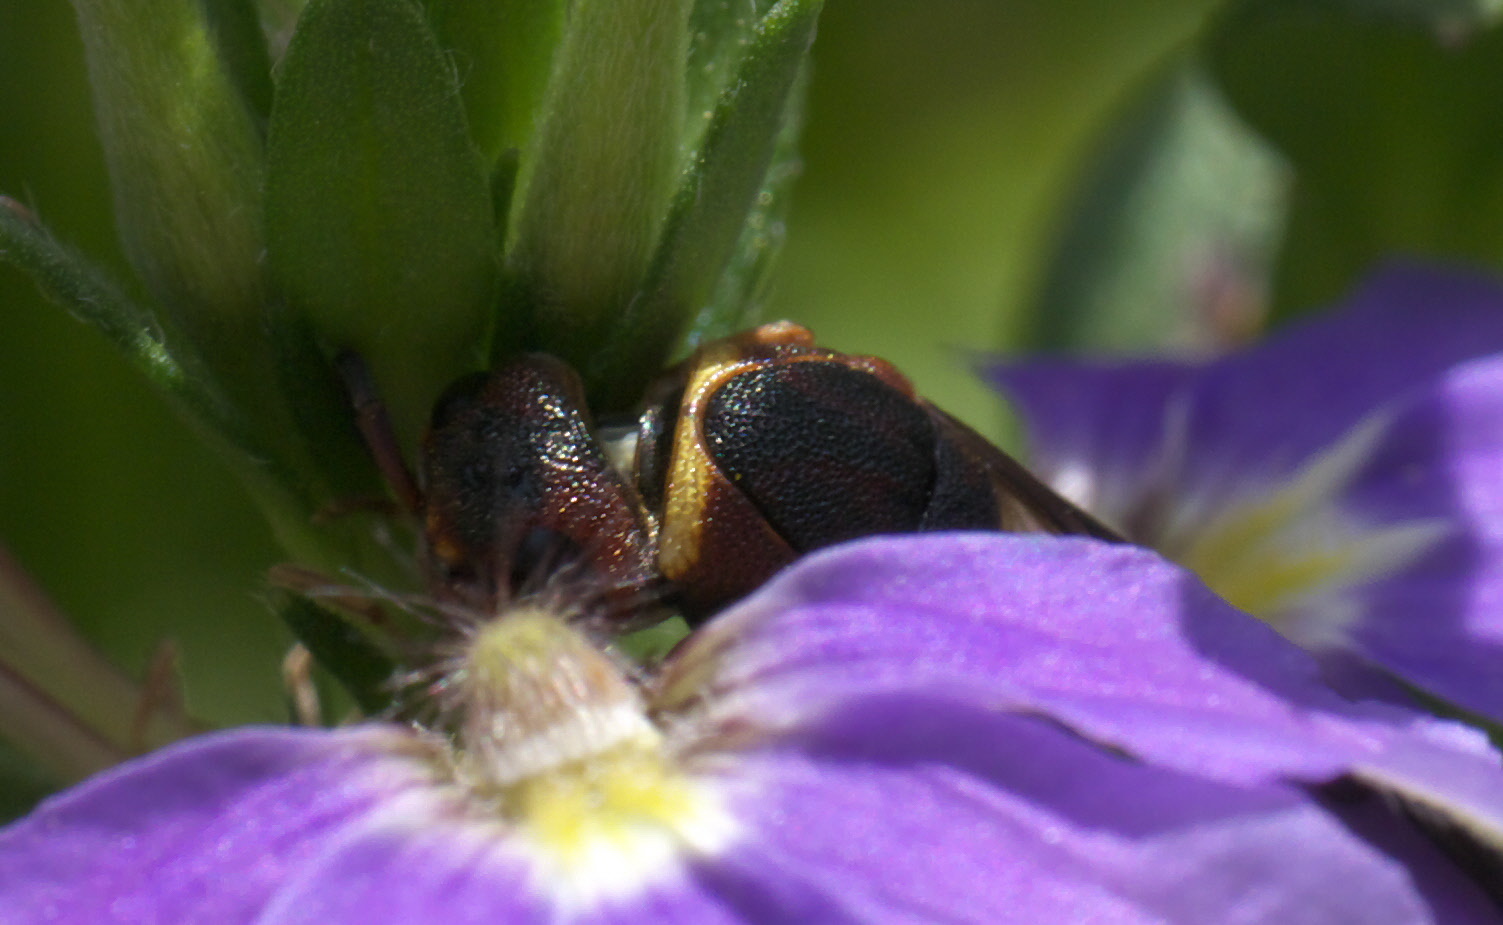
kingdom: Animalia
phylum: Arthropoda
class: Insecta
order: Hymenoptera
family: Eumenidae
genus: Euodynerus
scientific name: Euodynerus annulatus
